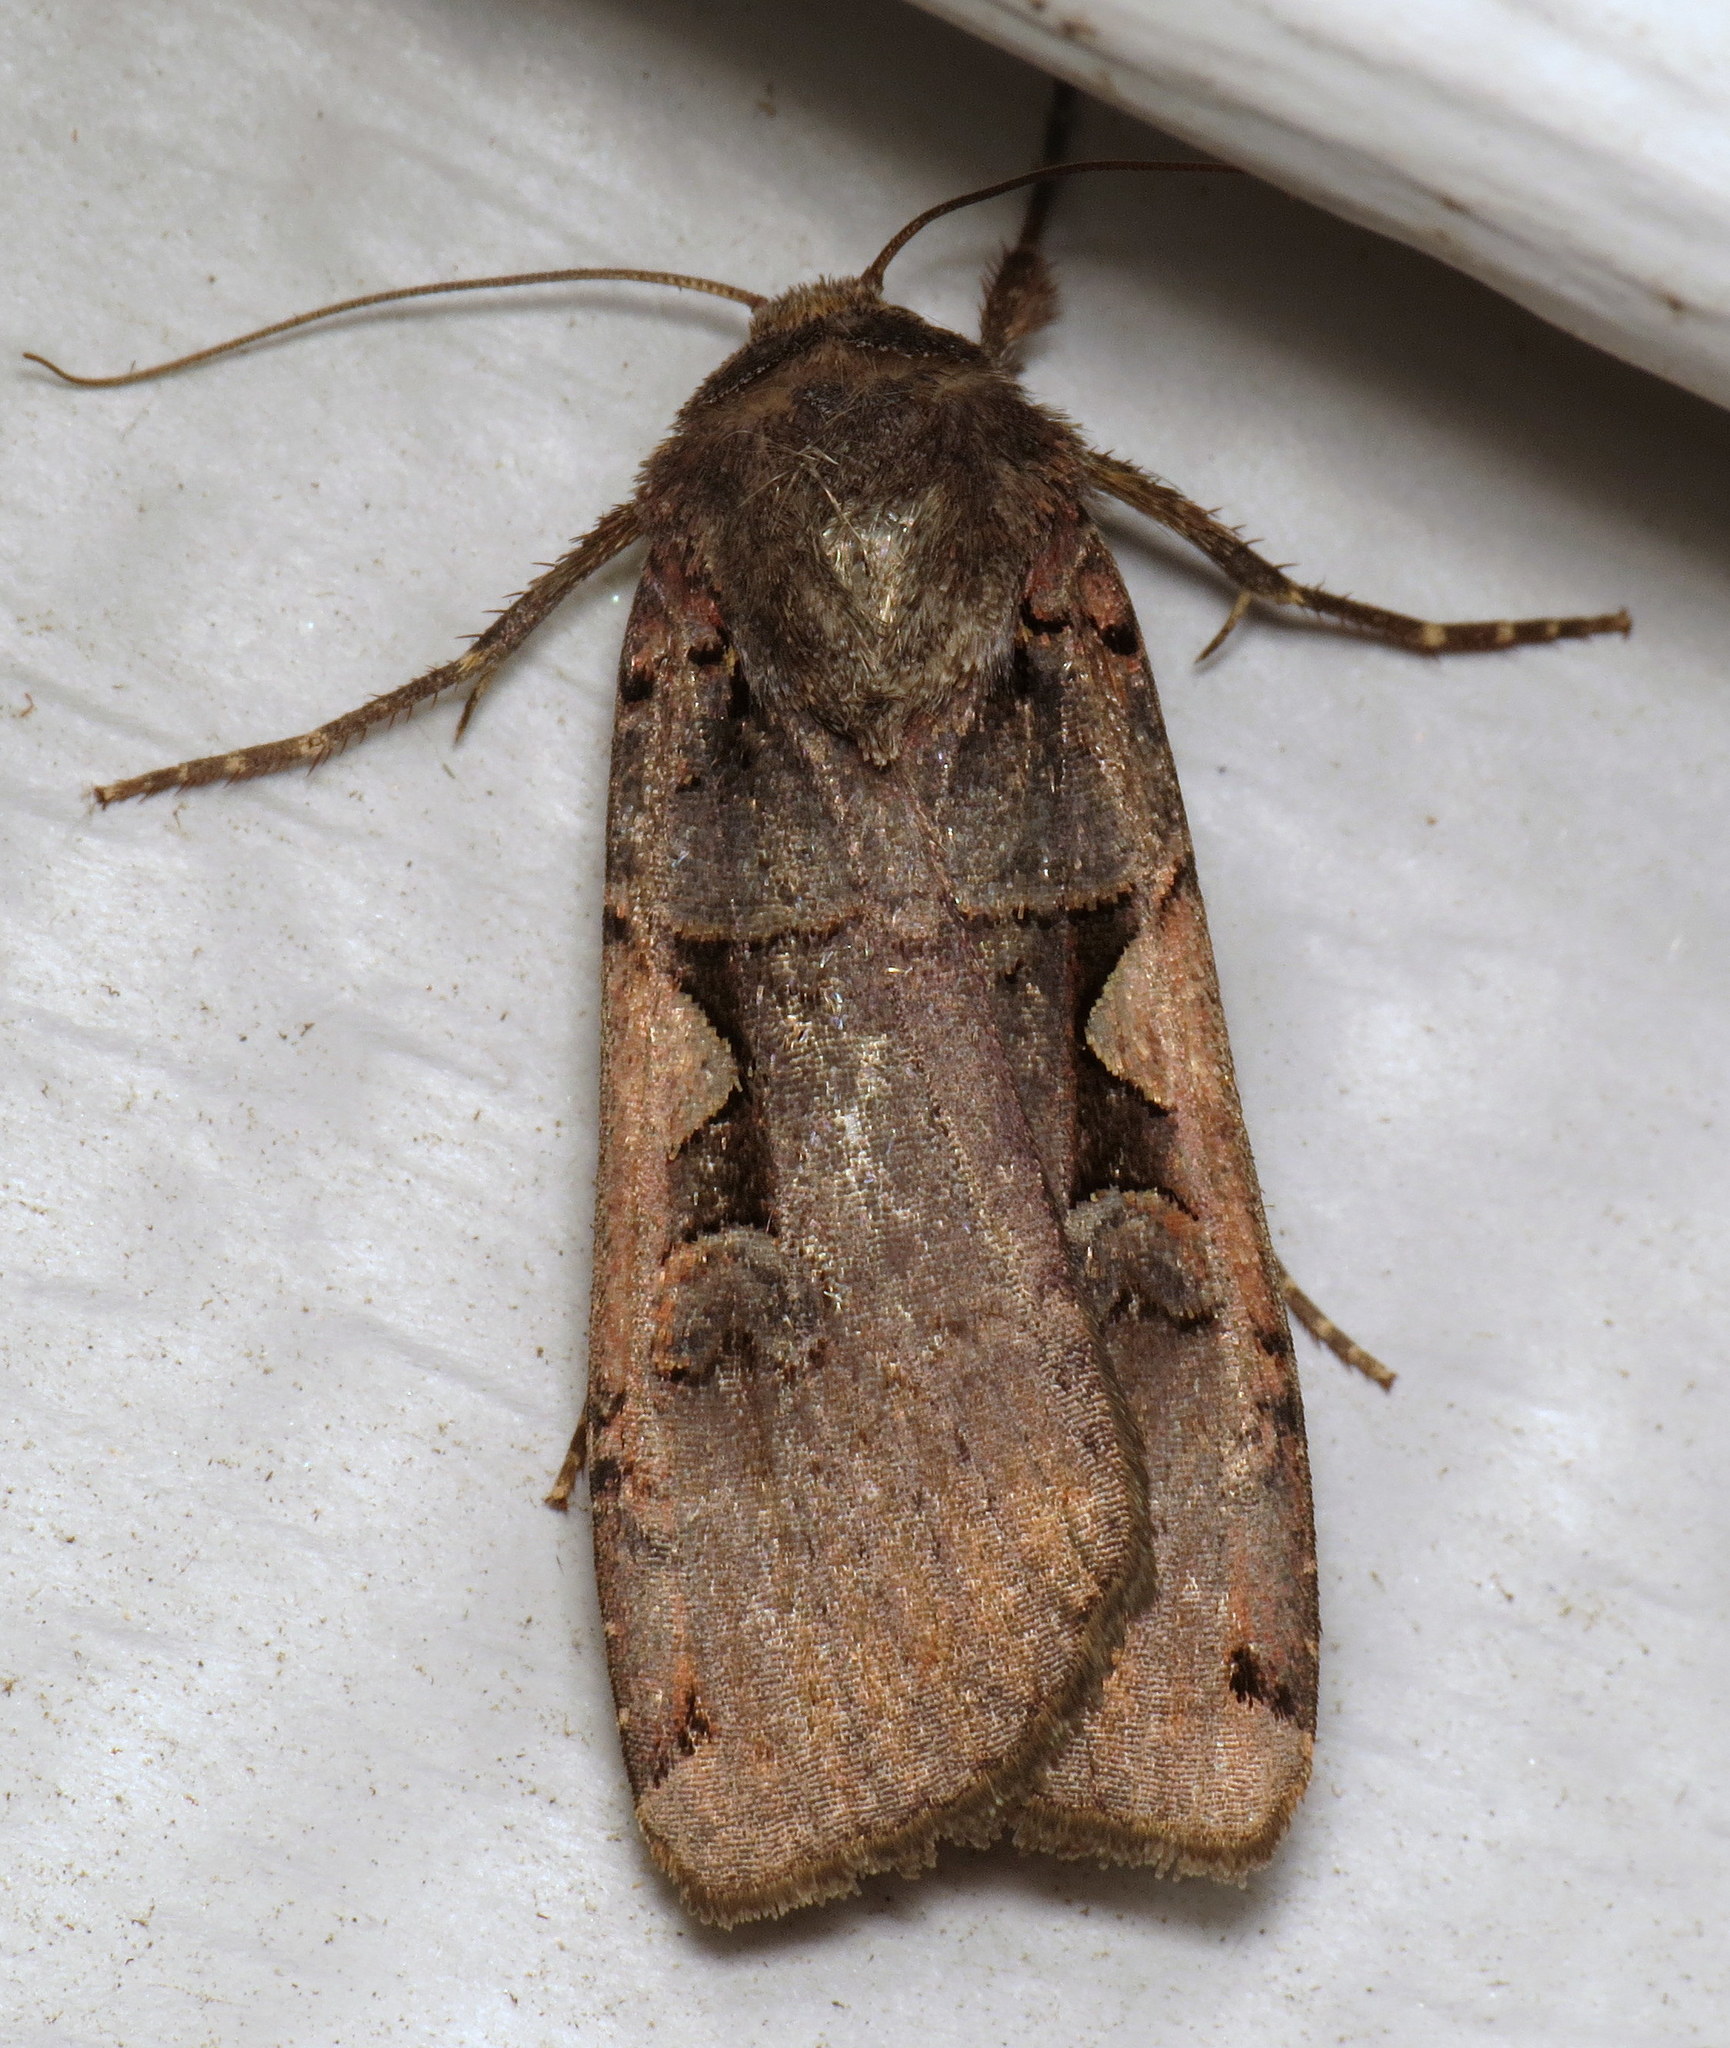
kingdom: Animalia
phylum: Arthropoda
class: Insecta
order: Lepidoptera
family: Noctuidae
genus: Xestia
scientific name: Xestia
